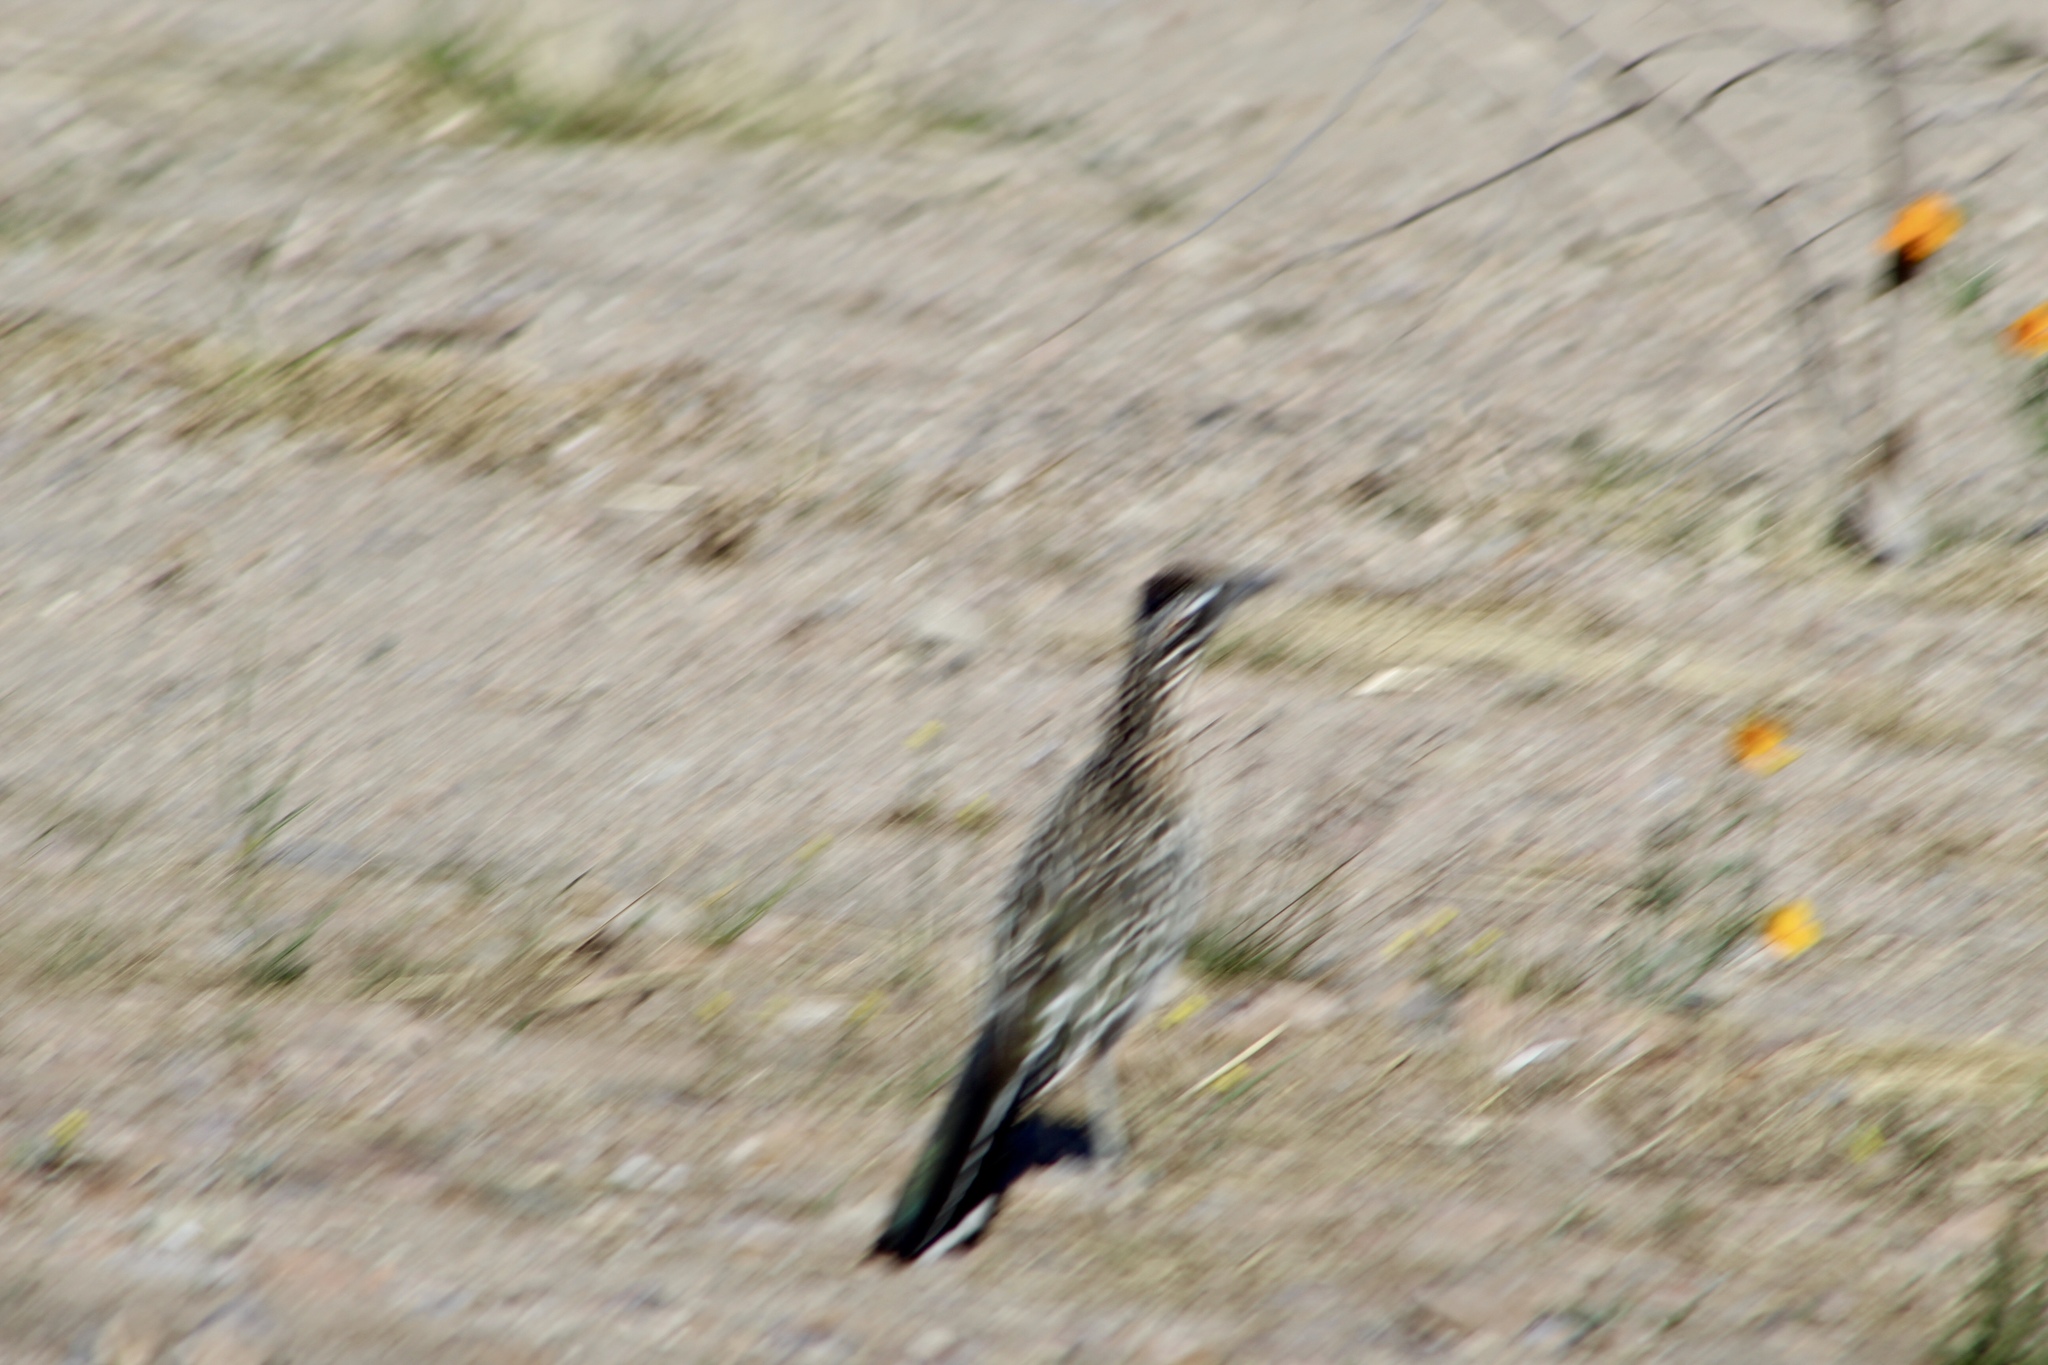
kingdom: Animalia
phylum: Chordata
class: Aves
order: Cuculiformes
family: Cuculidae
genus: Geococcyx
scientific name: Geococcyx californianus
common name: Greater roadrunner
